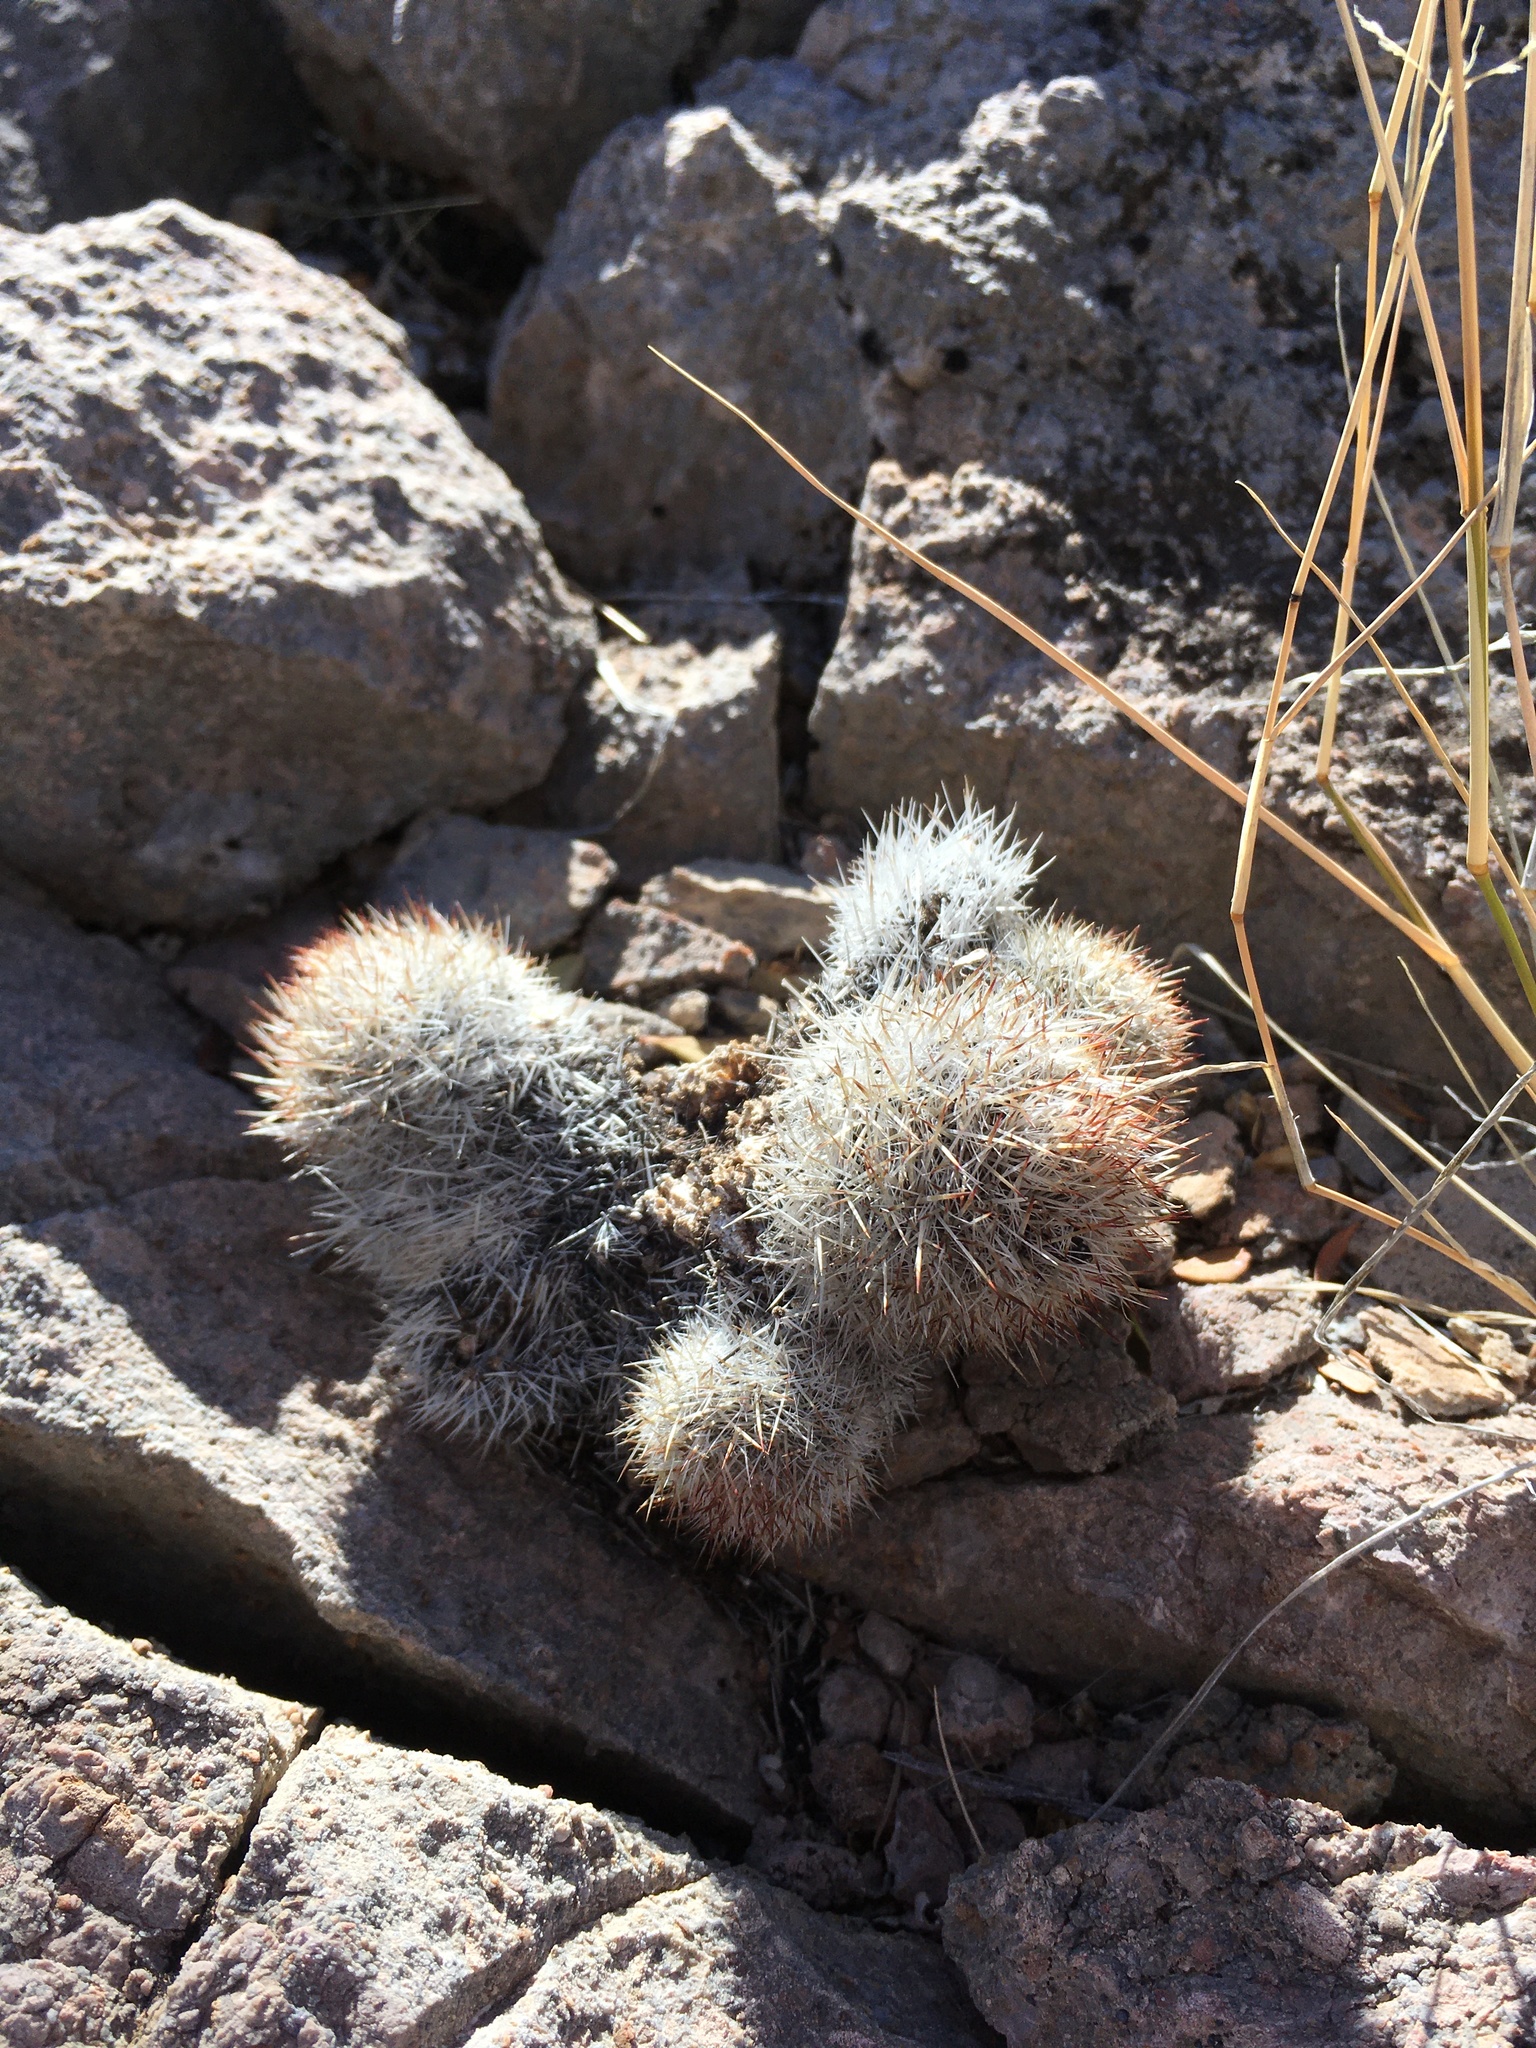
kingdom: Plantae
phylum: Tracheophyta
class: Magnoliopsida
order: Caryophyllales
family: Cactaceae
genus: Pelecyphora
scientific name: Pelecyphora sneedii
